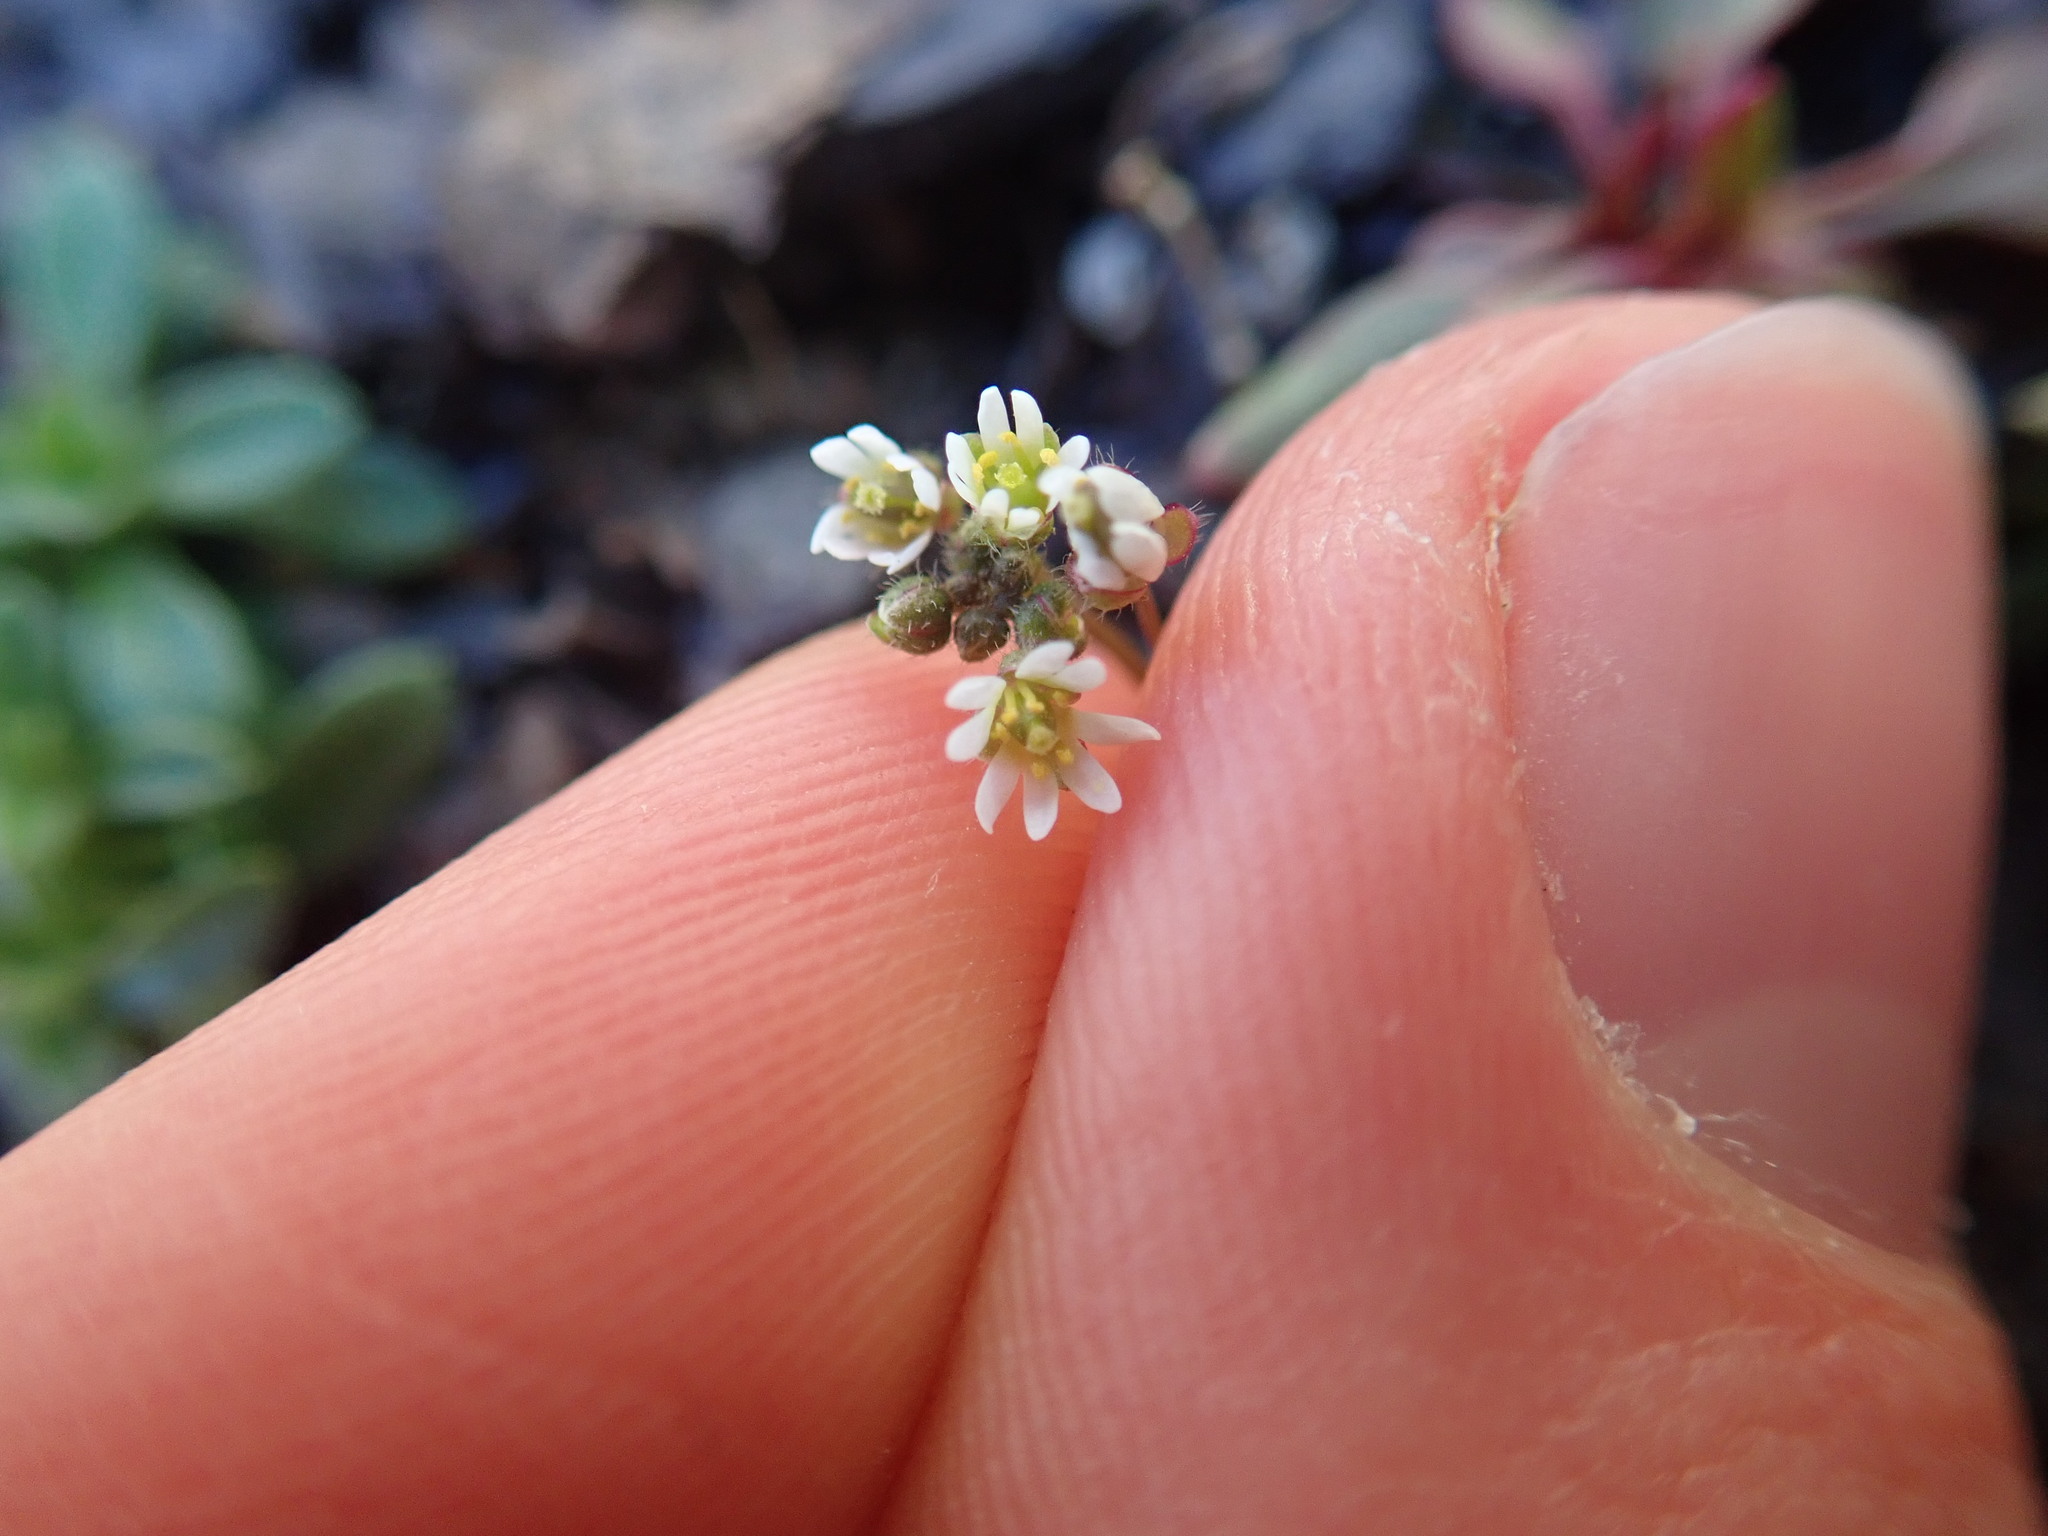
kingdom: Plantae
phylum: Tracheophyta
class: Magnoliopsida
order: Brassicales
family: Brassicaceae
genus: Draba
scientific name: Draba verna
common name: Spring draba
